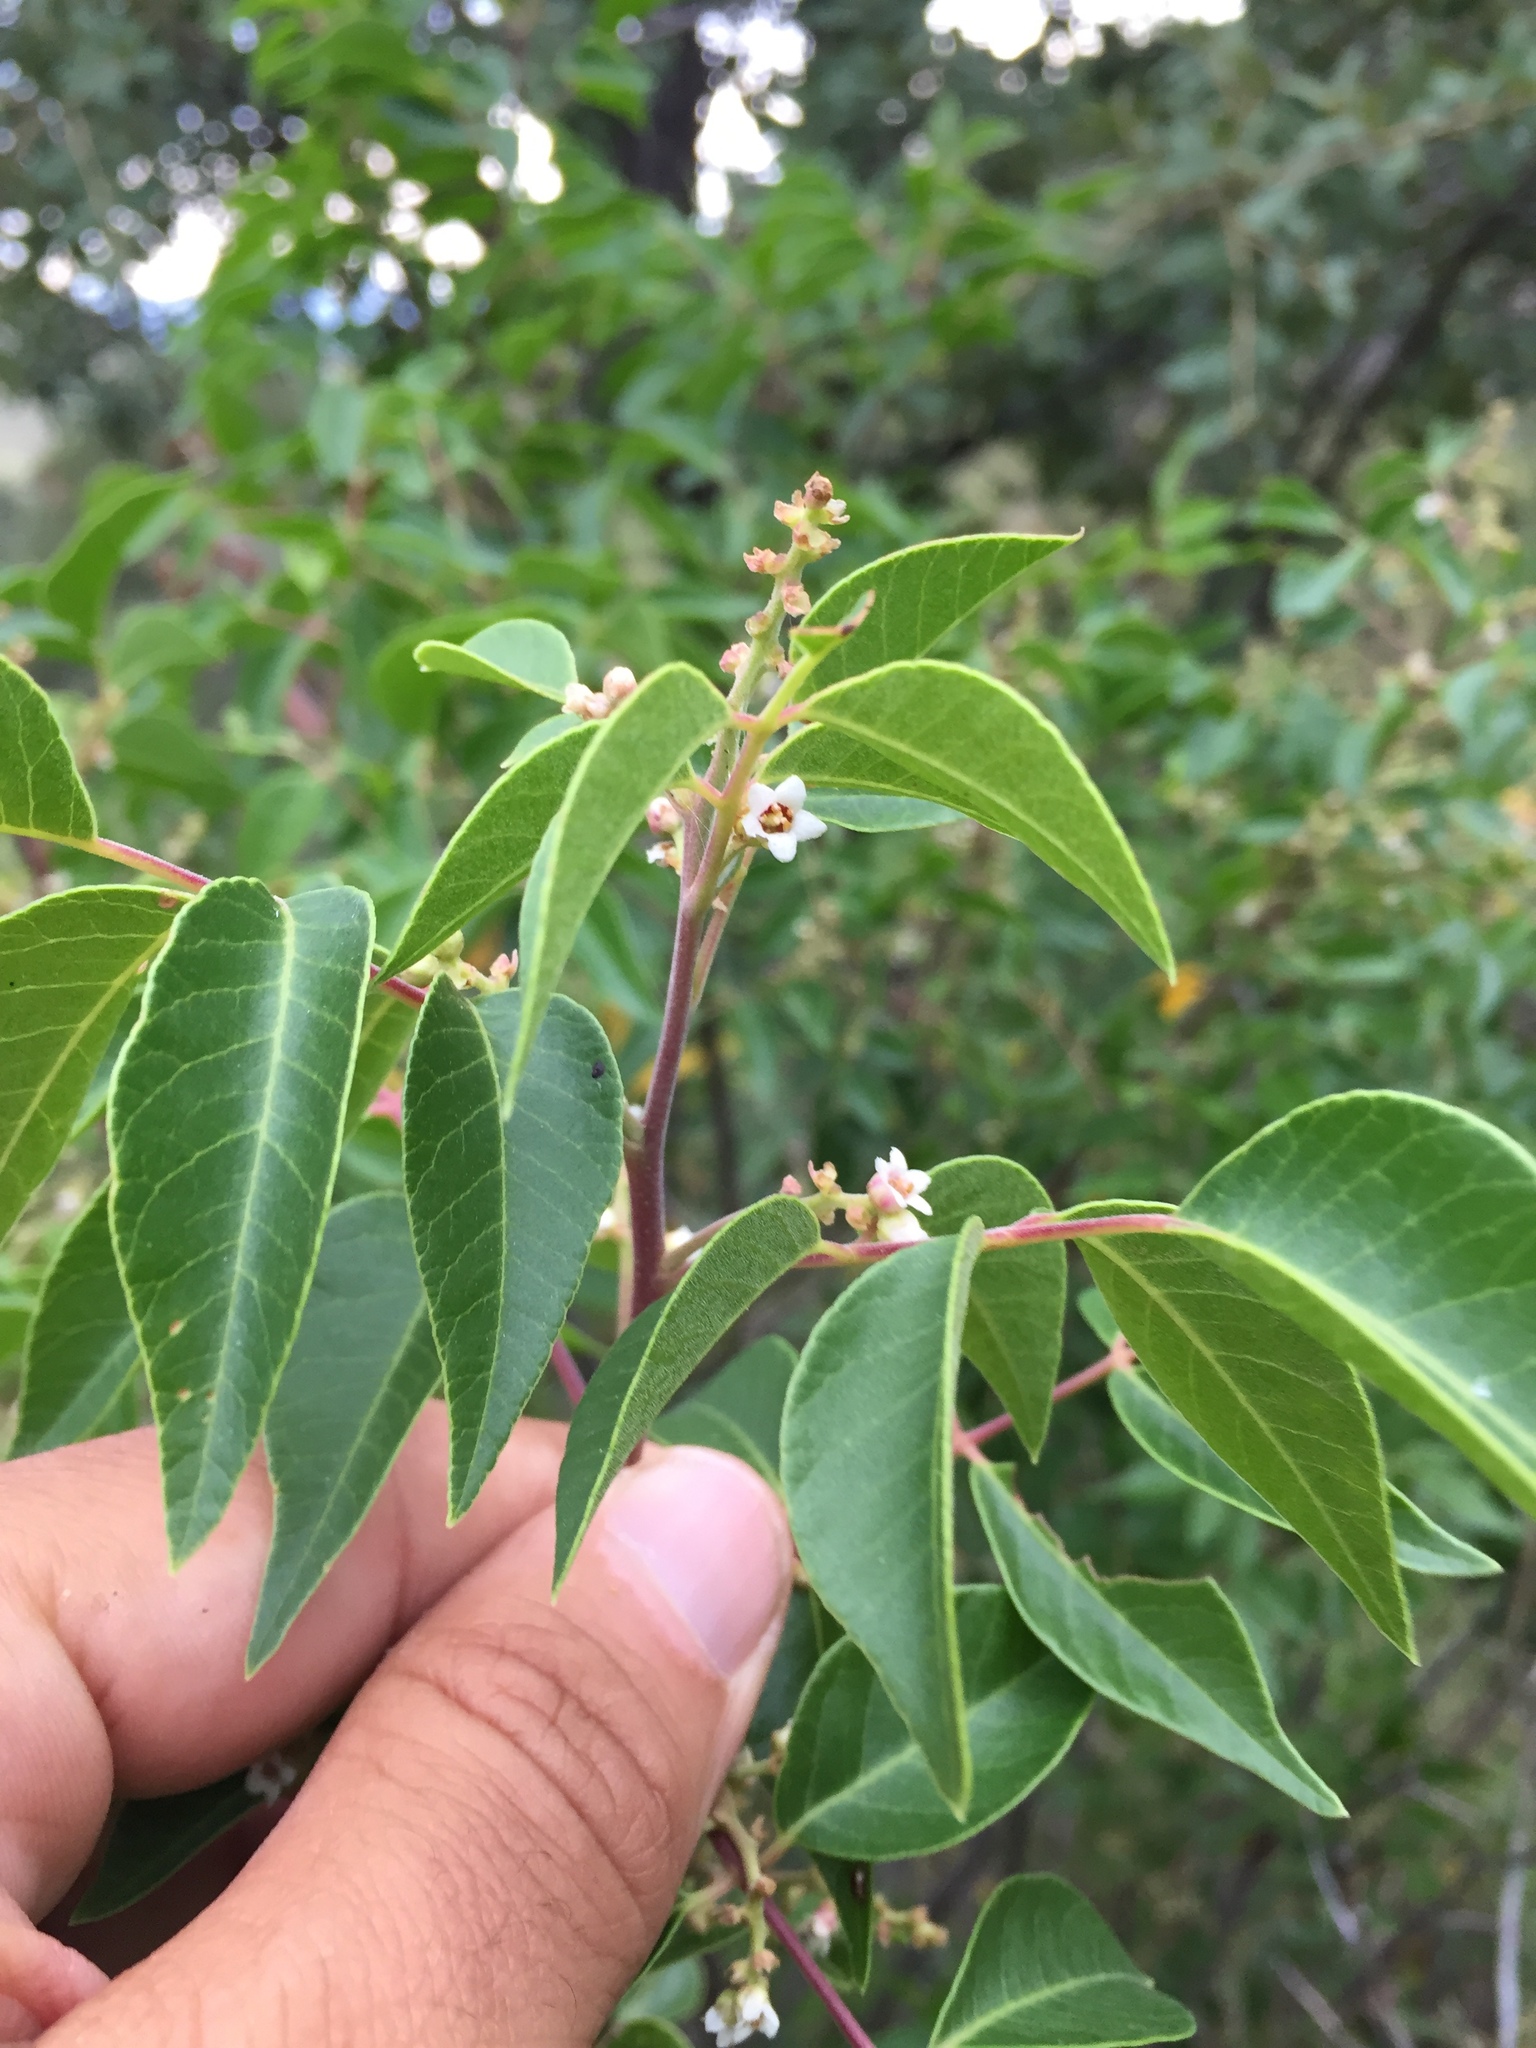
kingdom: Plantae
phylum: Tracheophyta
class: Magnoliopsida
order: Sapindales
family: Anacardiaceae
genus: Rhus
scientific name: Rhus virens
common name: Evergreen sumac
